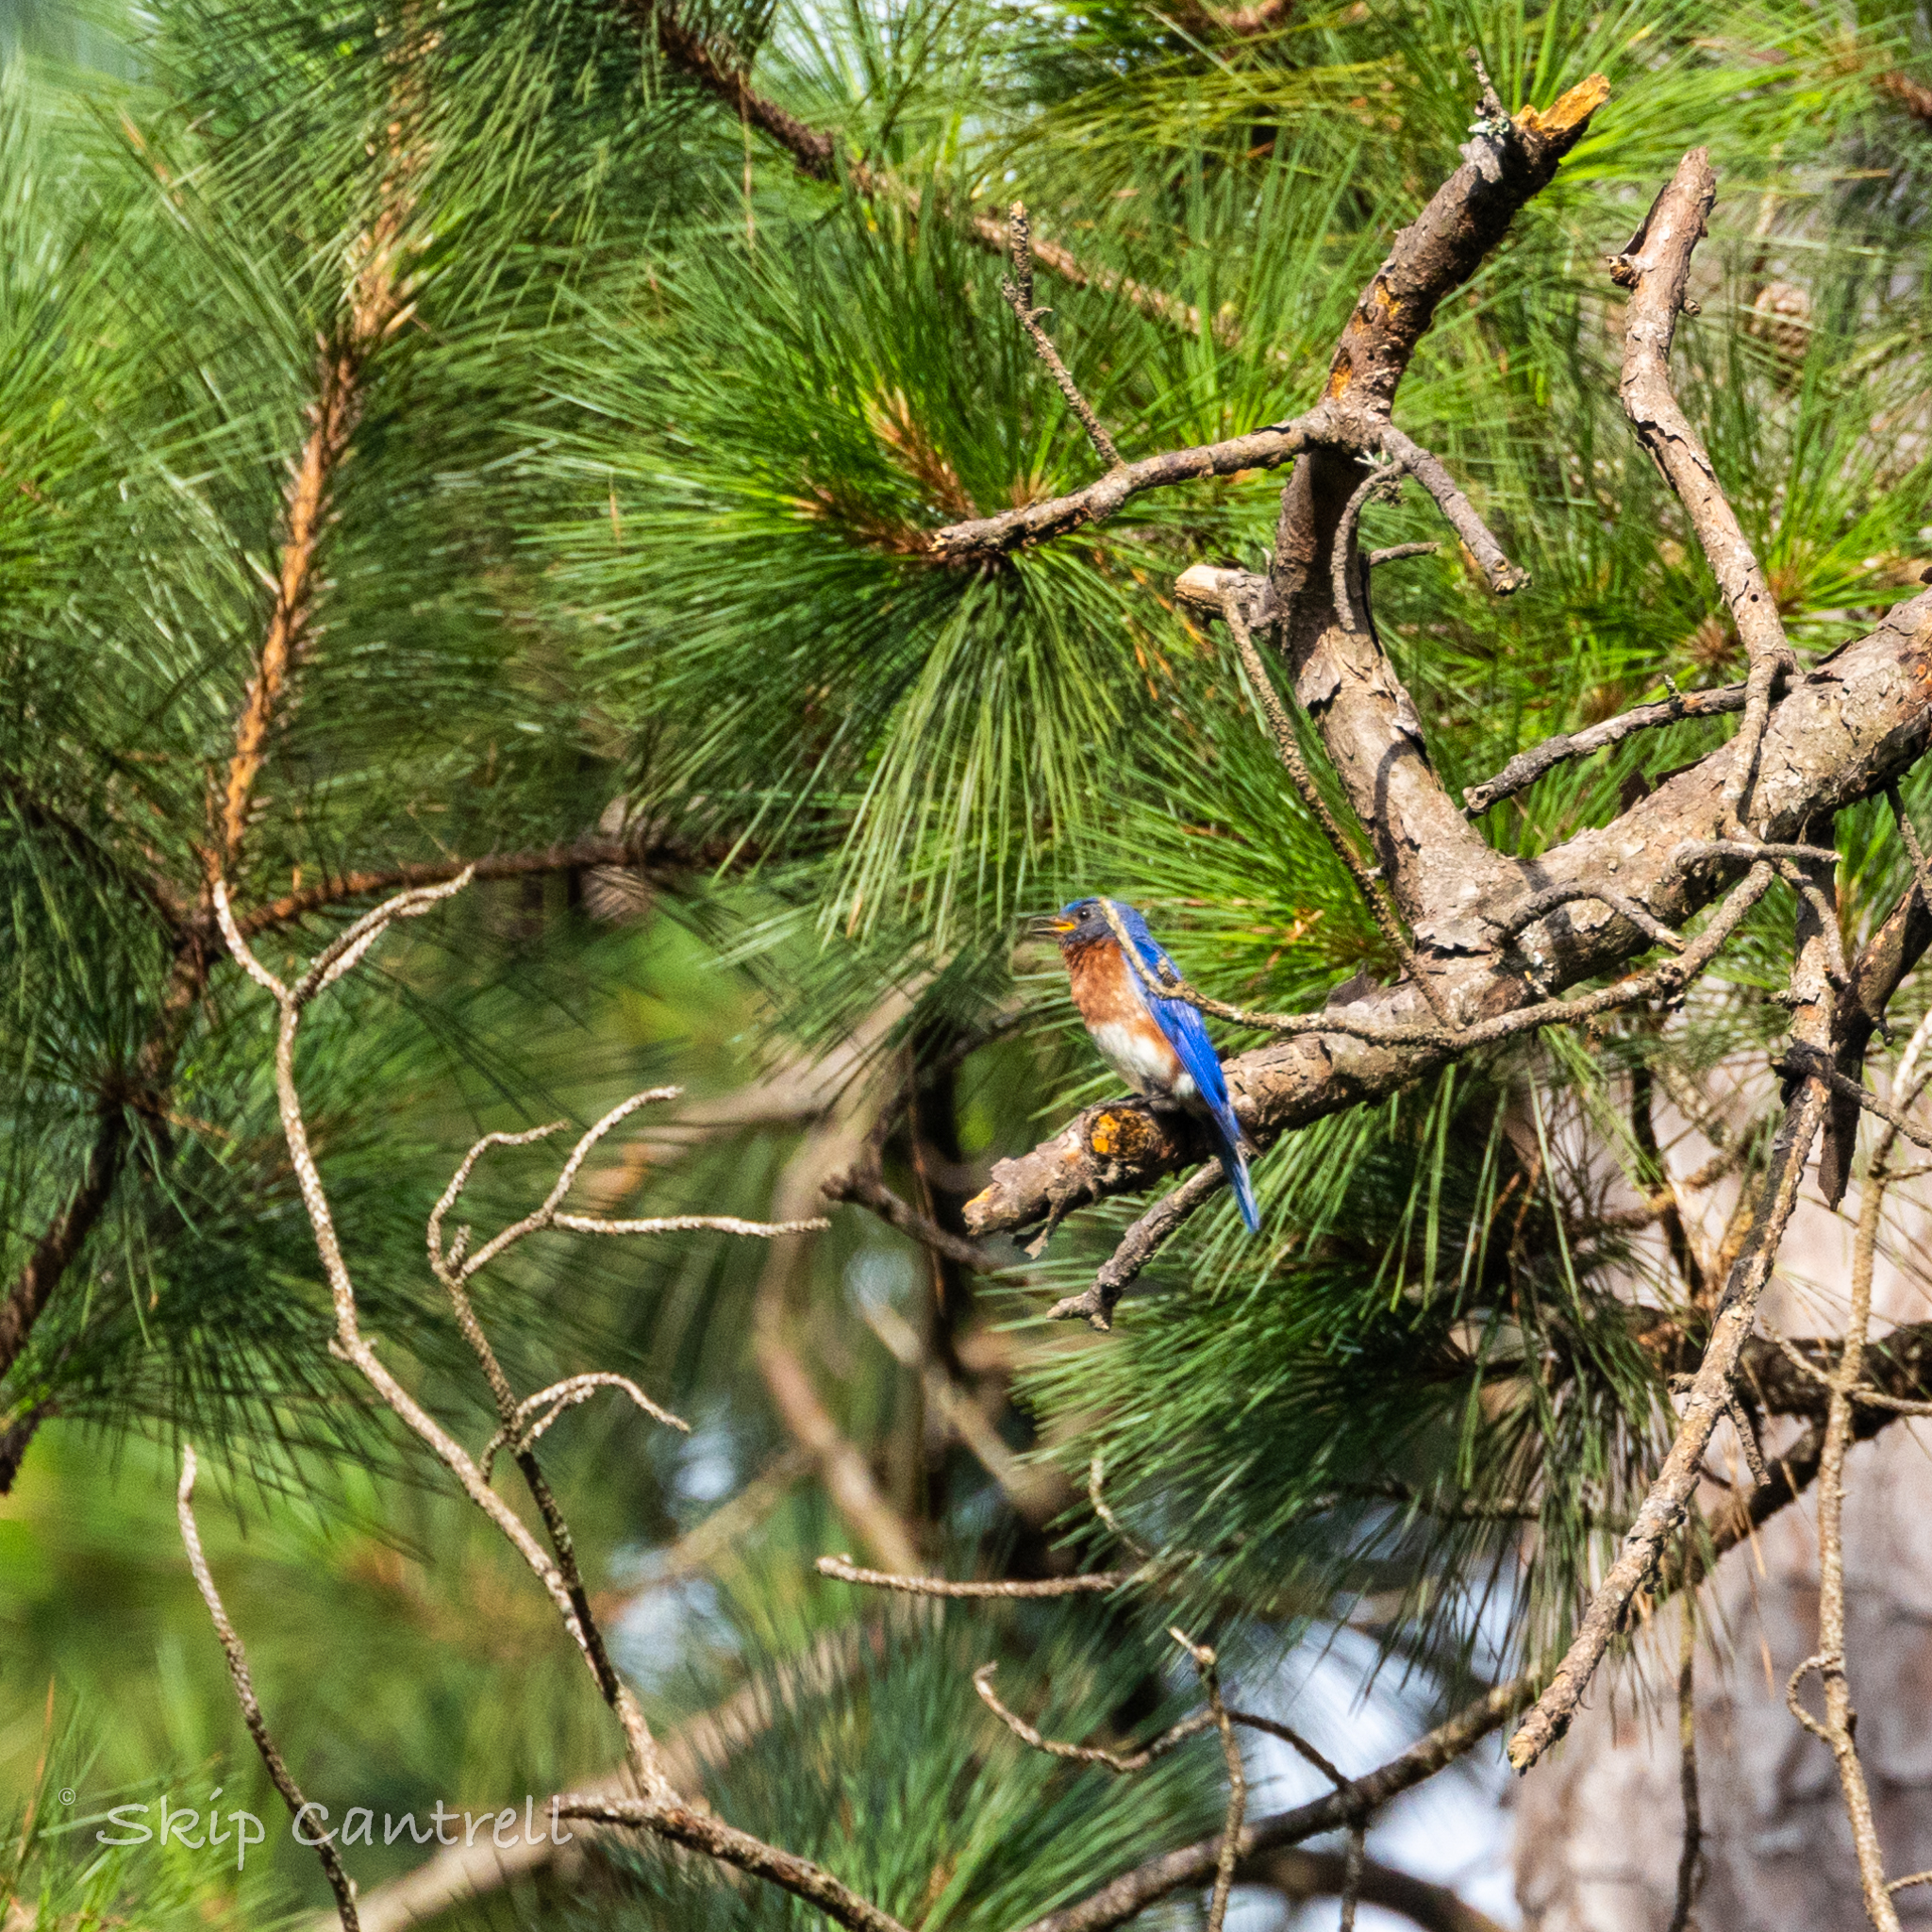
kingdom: Animalia
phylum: Chordata
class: Aves
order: Passeriformes
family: Turdidae
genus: Sialia
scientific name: Sialia sialis
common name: Eastern bluebird
